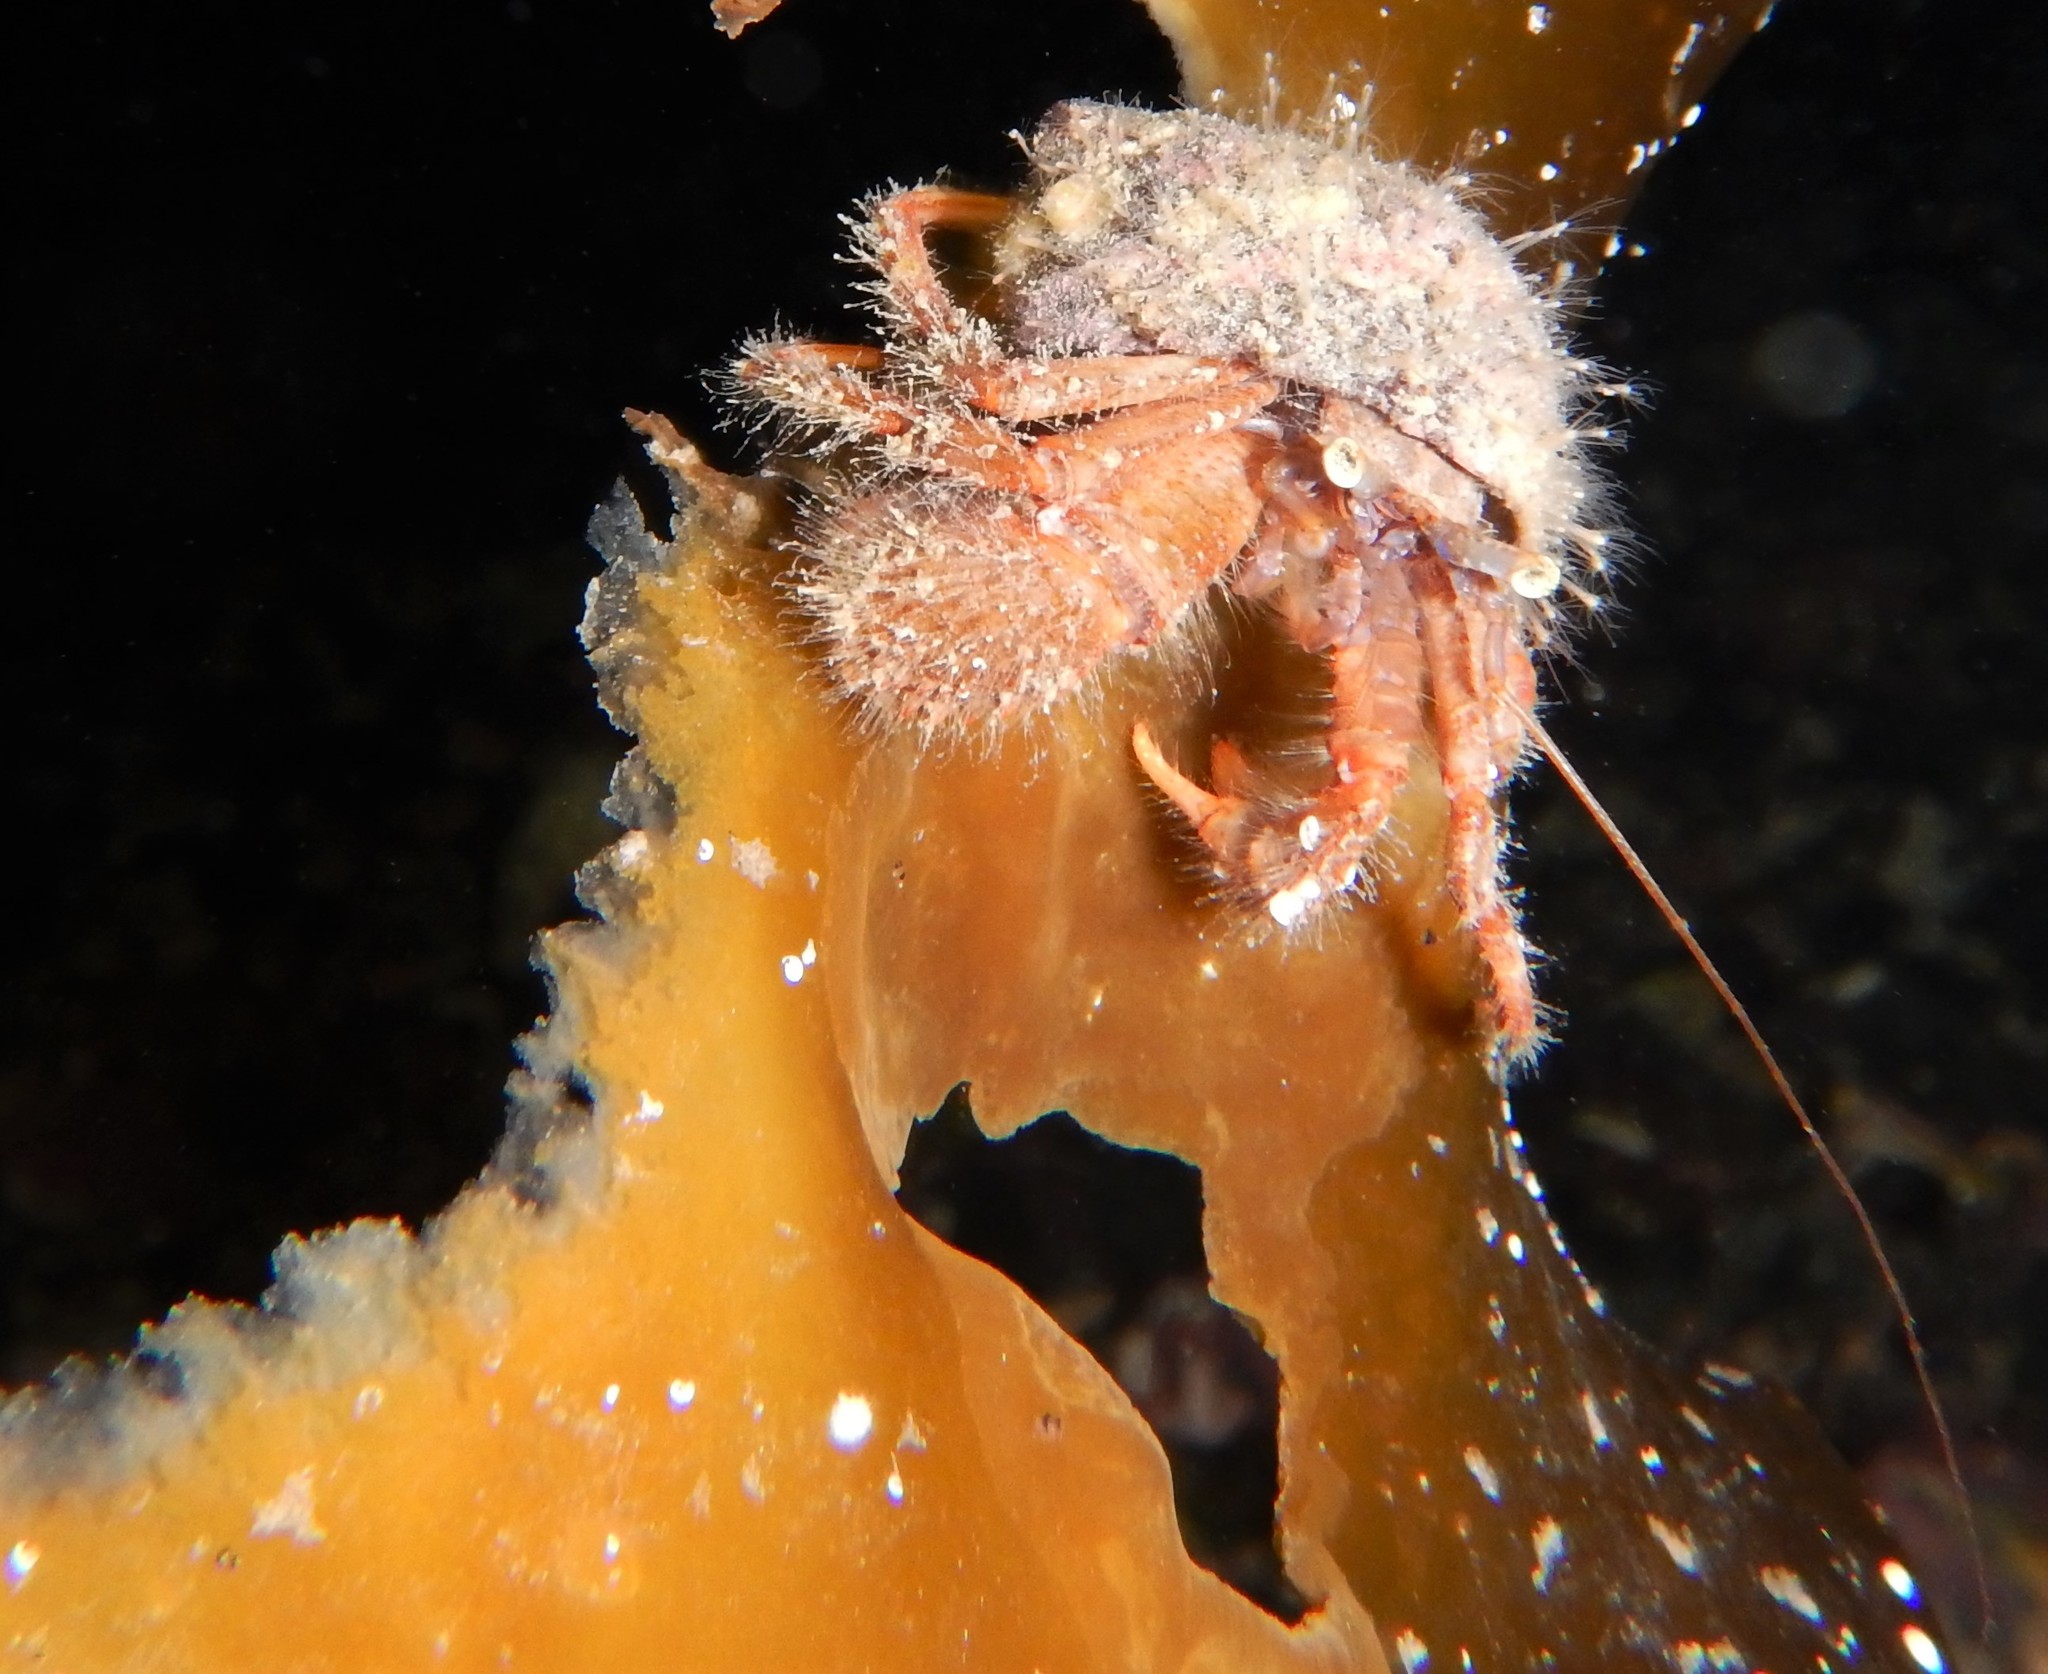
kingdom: Animalia
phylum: Arthropoda
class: Malacostraca
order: Decapoda
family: Paguridae
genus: Pagurus
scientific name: Pagurus pubescens
